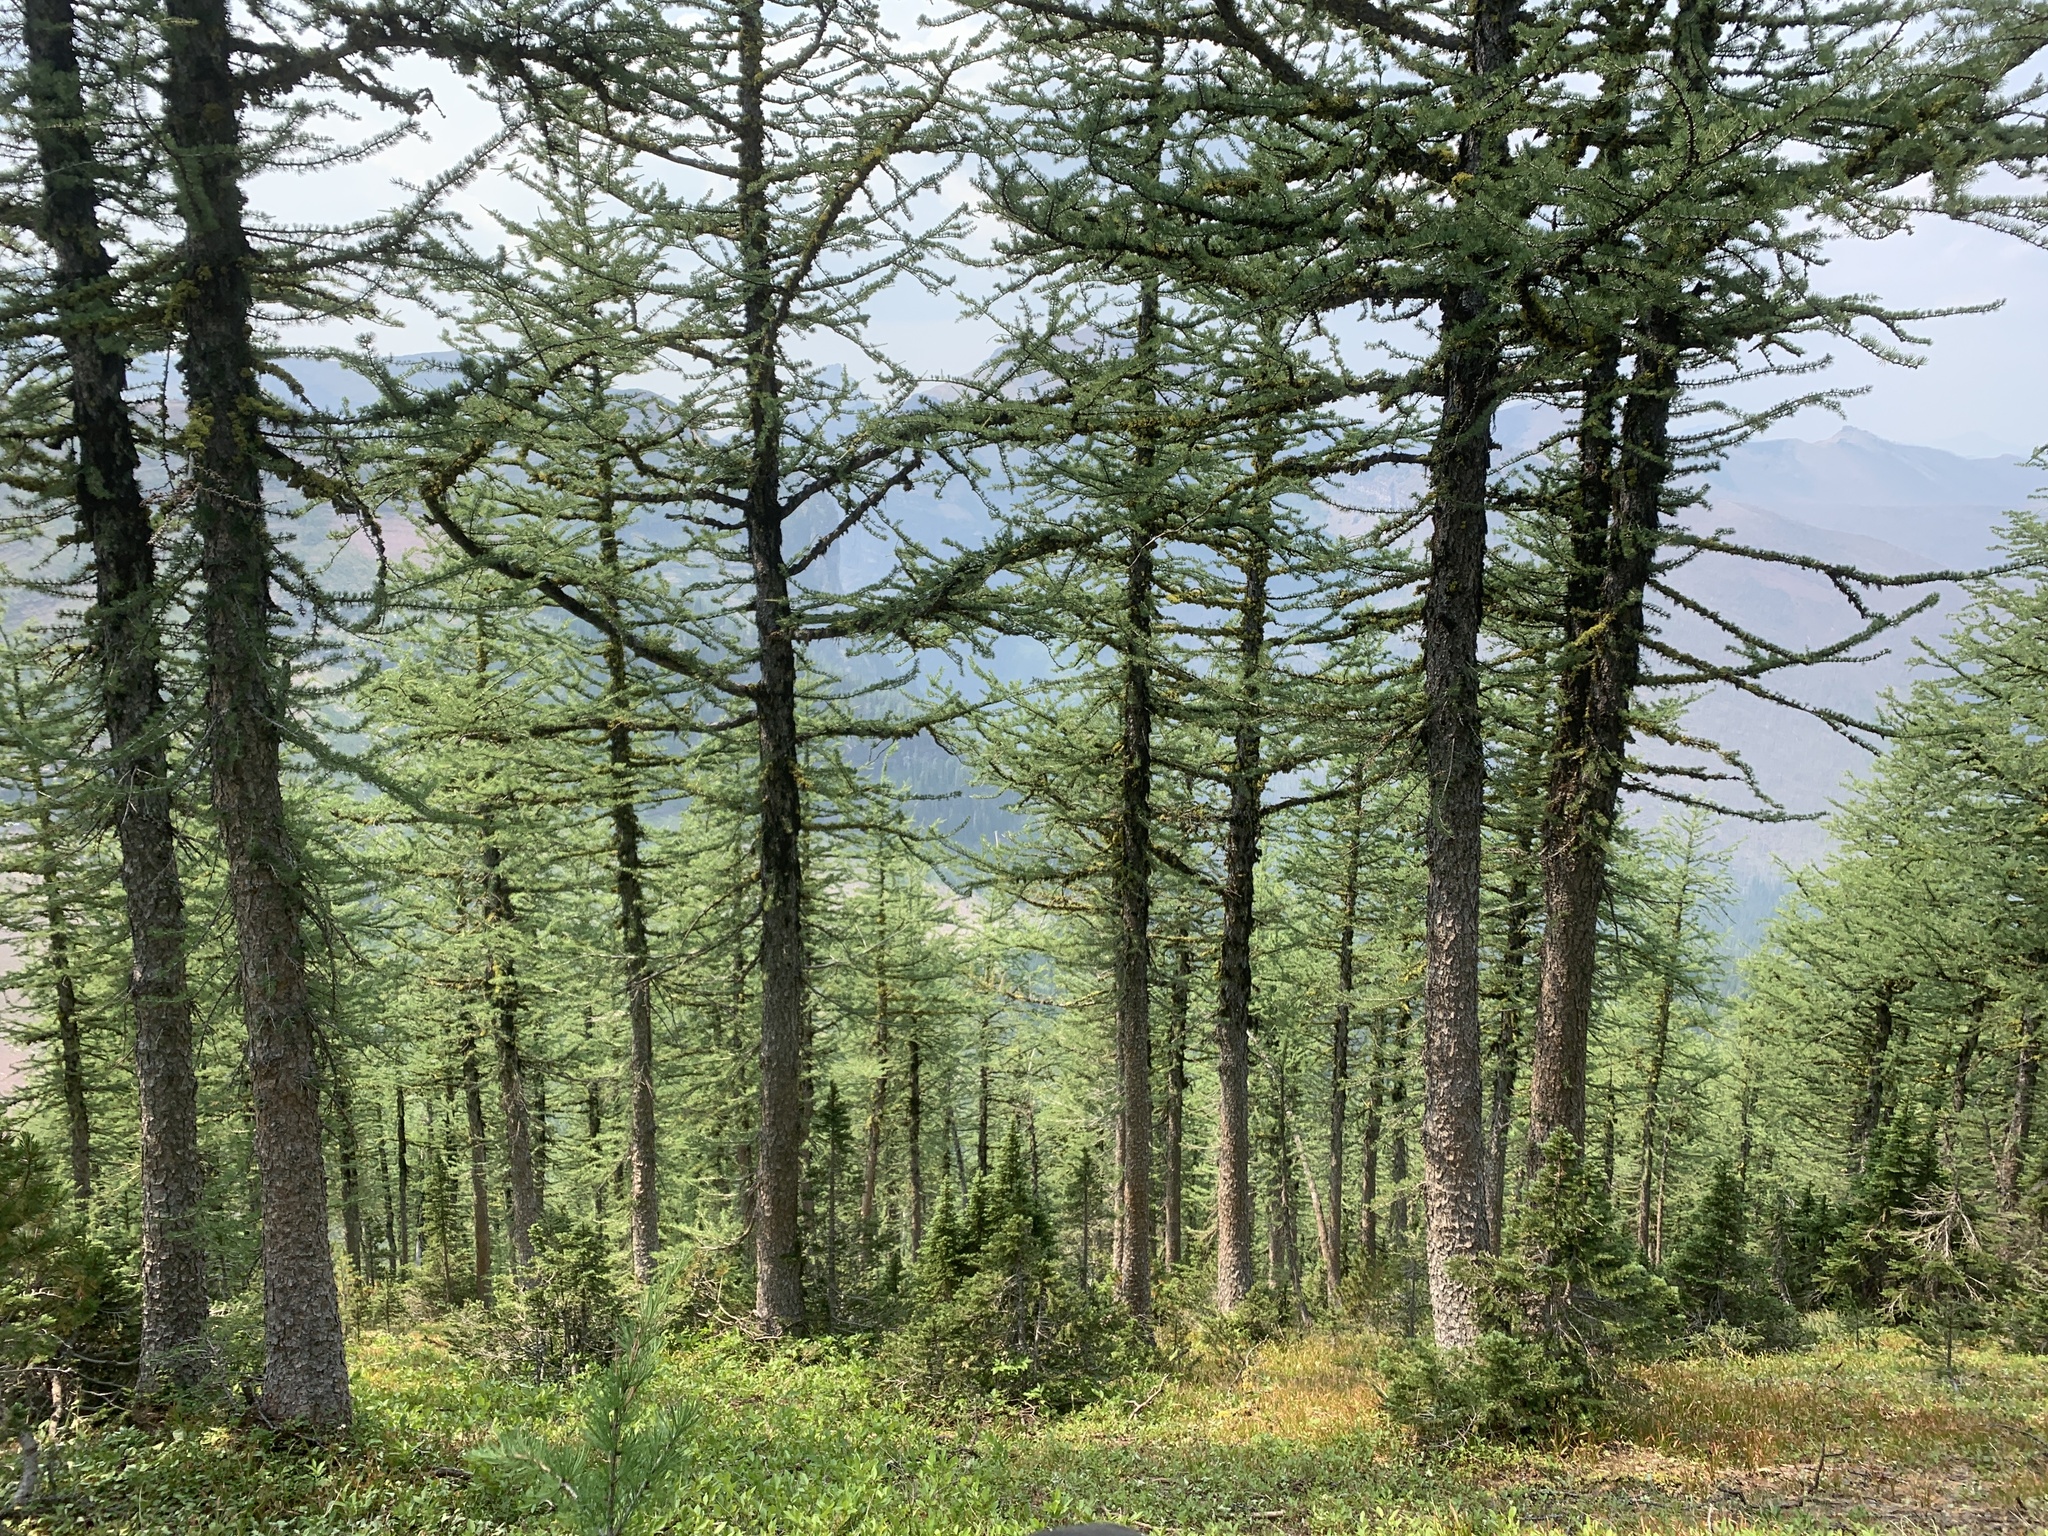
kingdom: Plantae
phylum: Tracheophyta
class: Pinopsida
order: Pinales
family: Pinaceae
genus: Larix
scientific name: Larix lyallii
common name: Alpine larch
